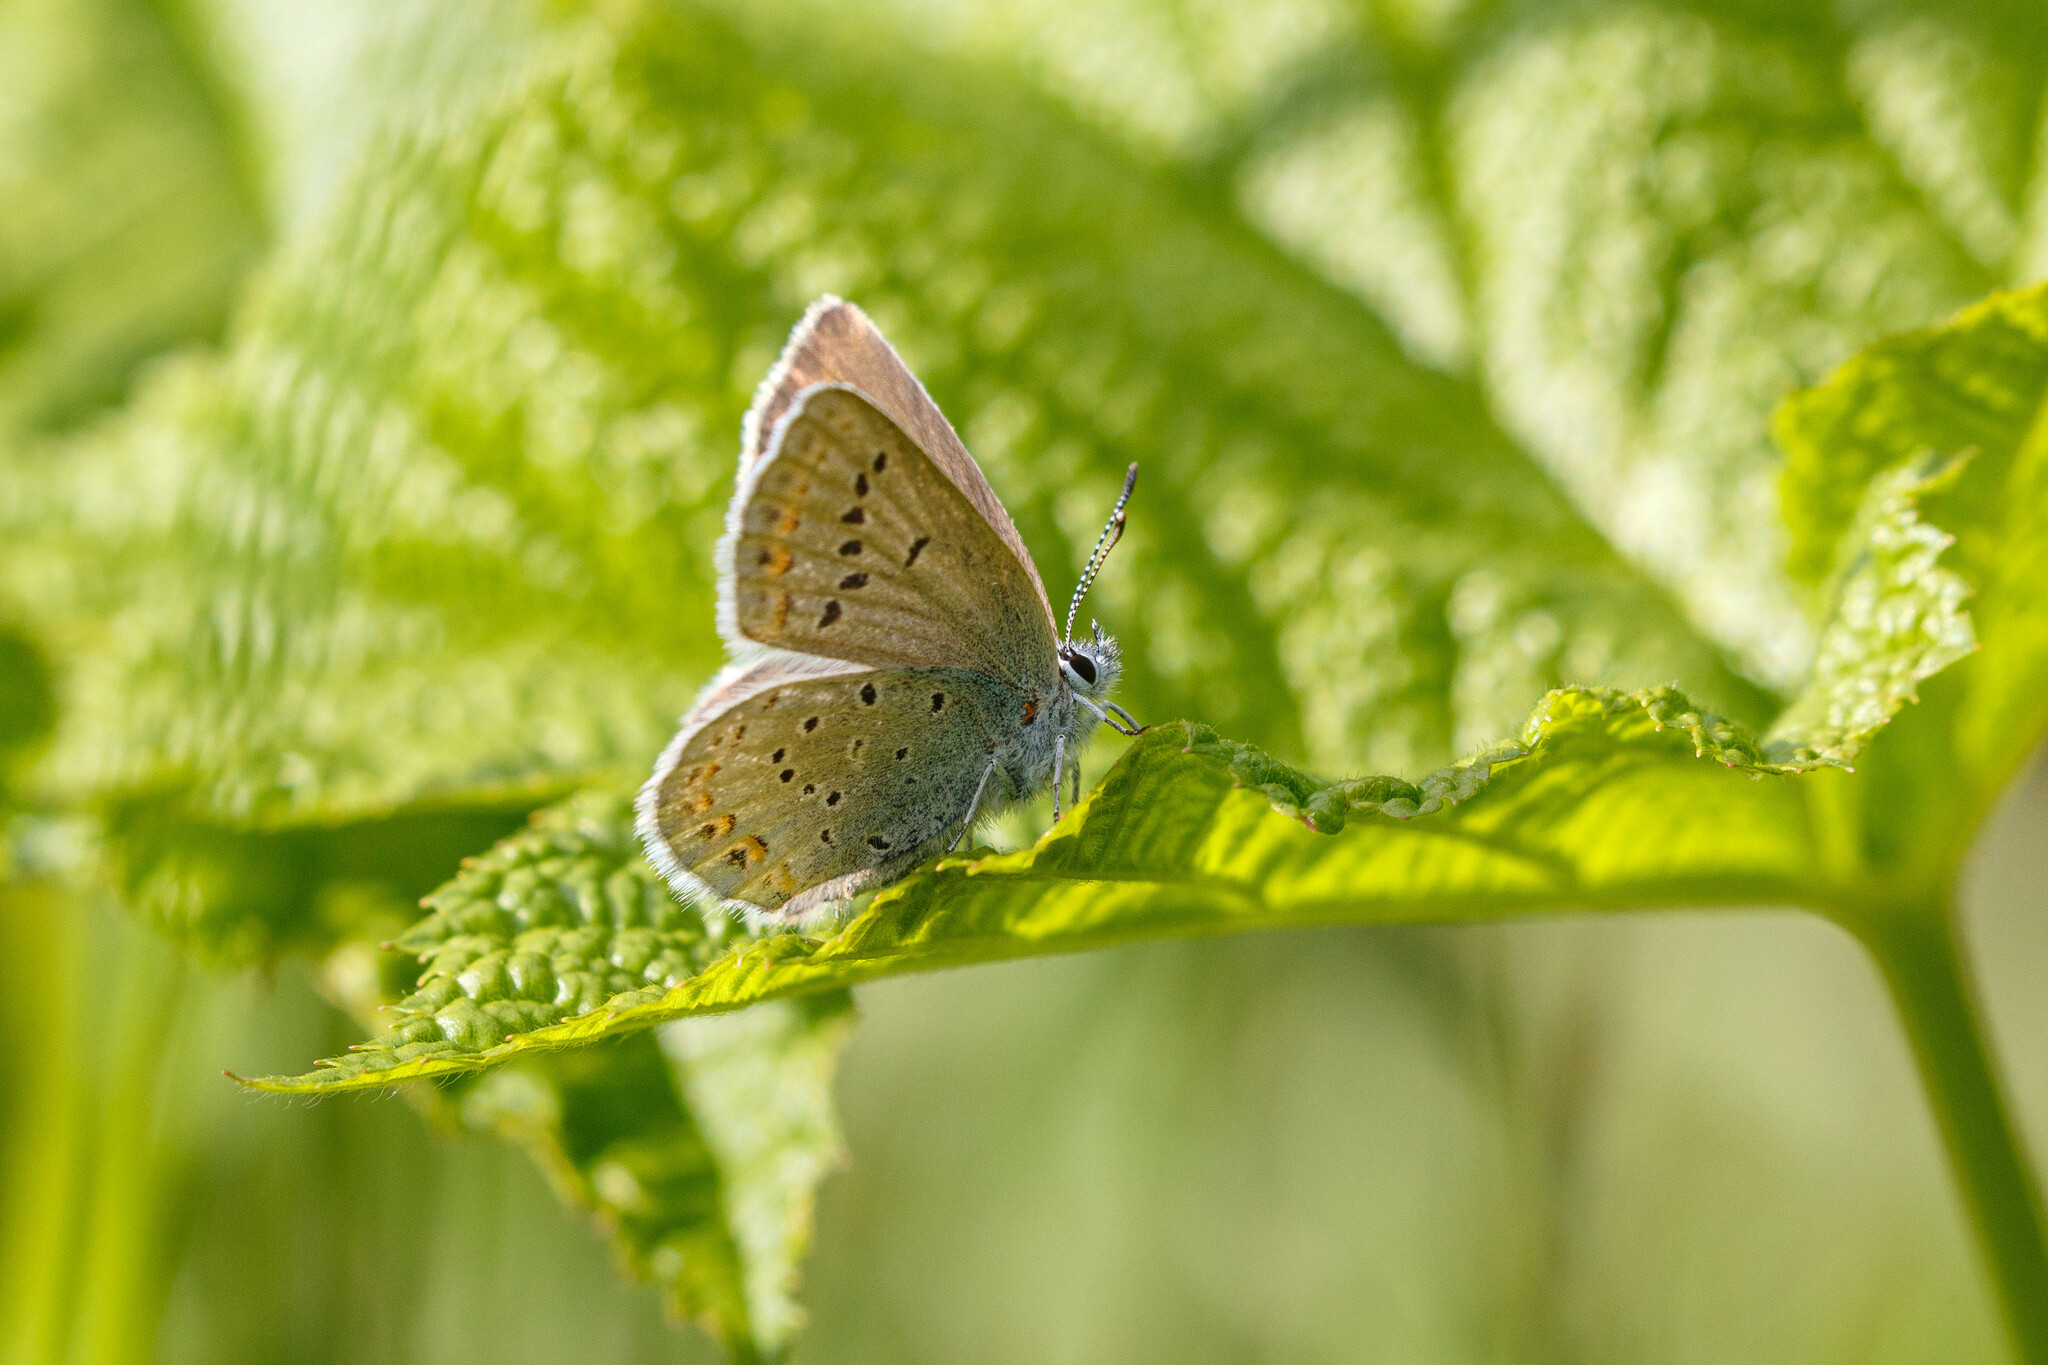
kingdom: Animalia
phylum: Arthropoda
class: Insecta
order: Lepidoptera
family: Lycaenidae
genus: Lycaeides
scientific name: Lycaeides anna
